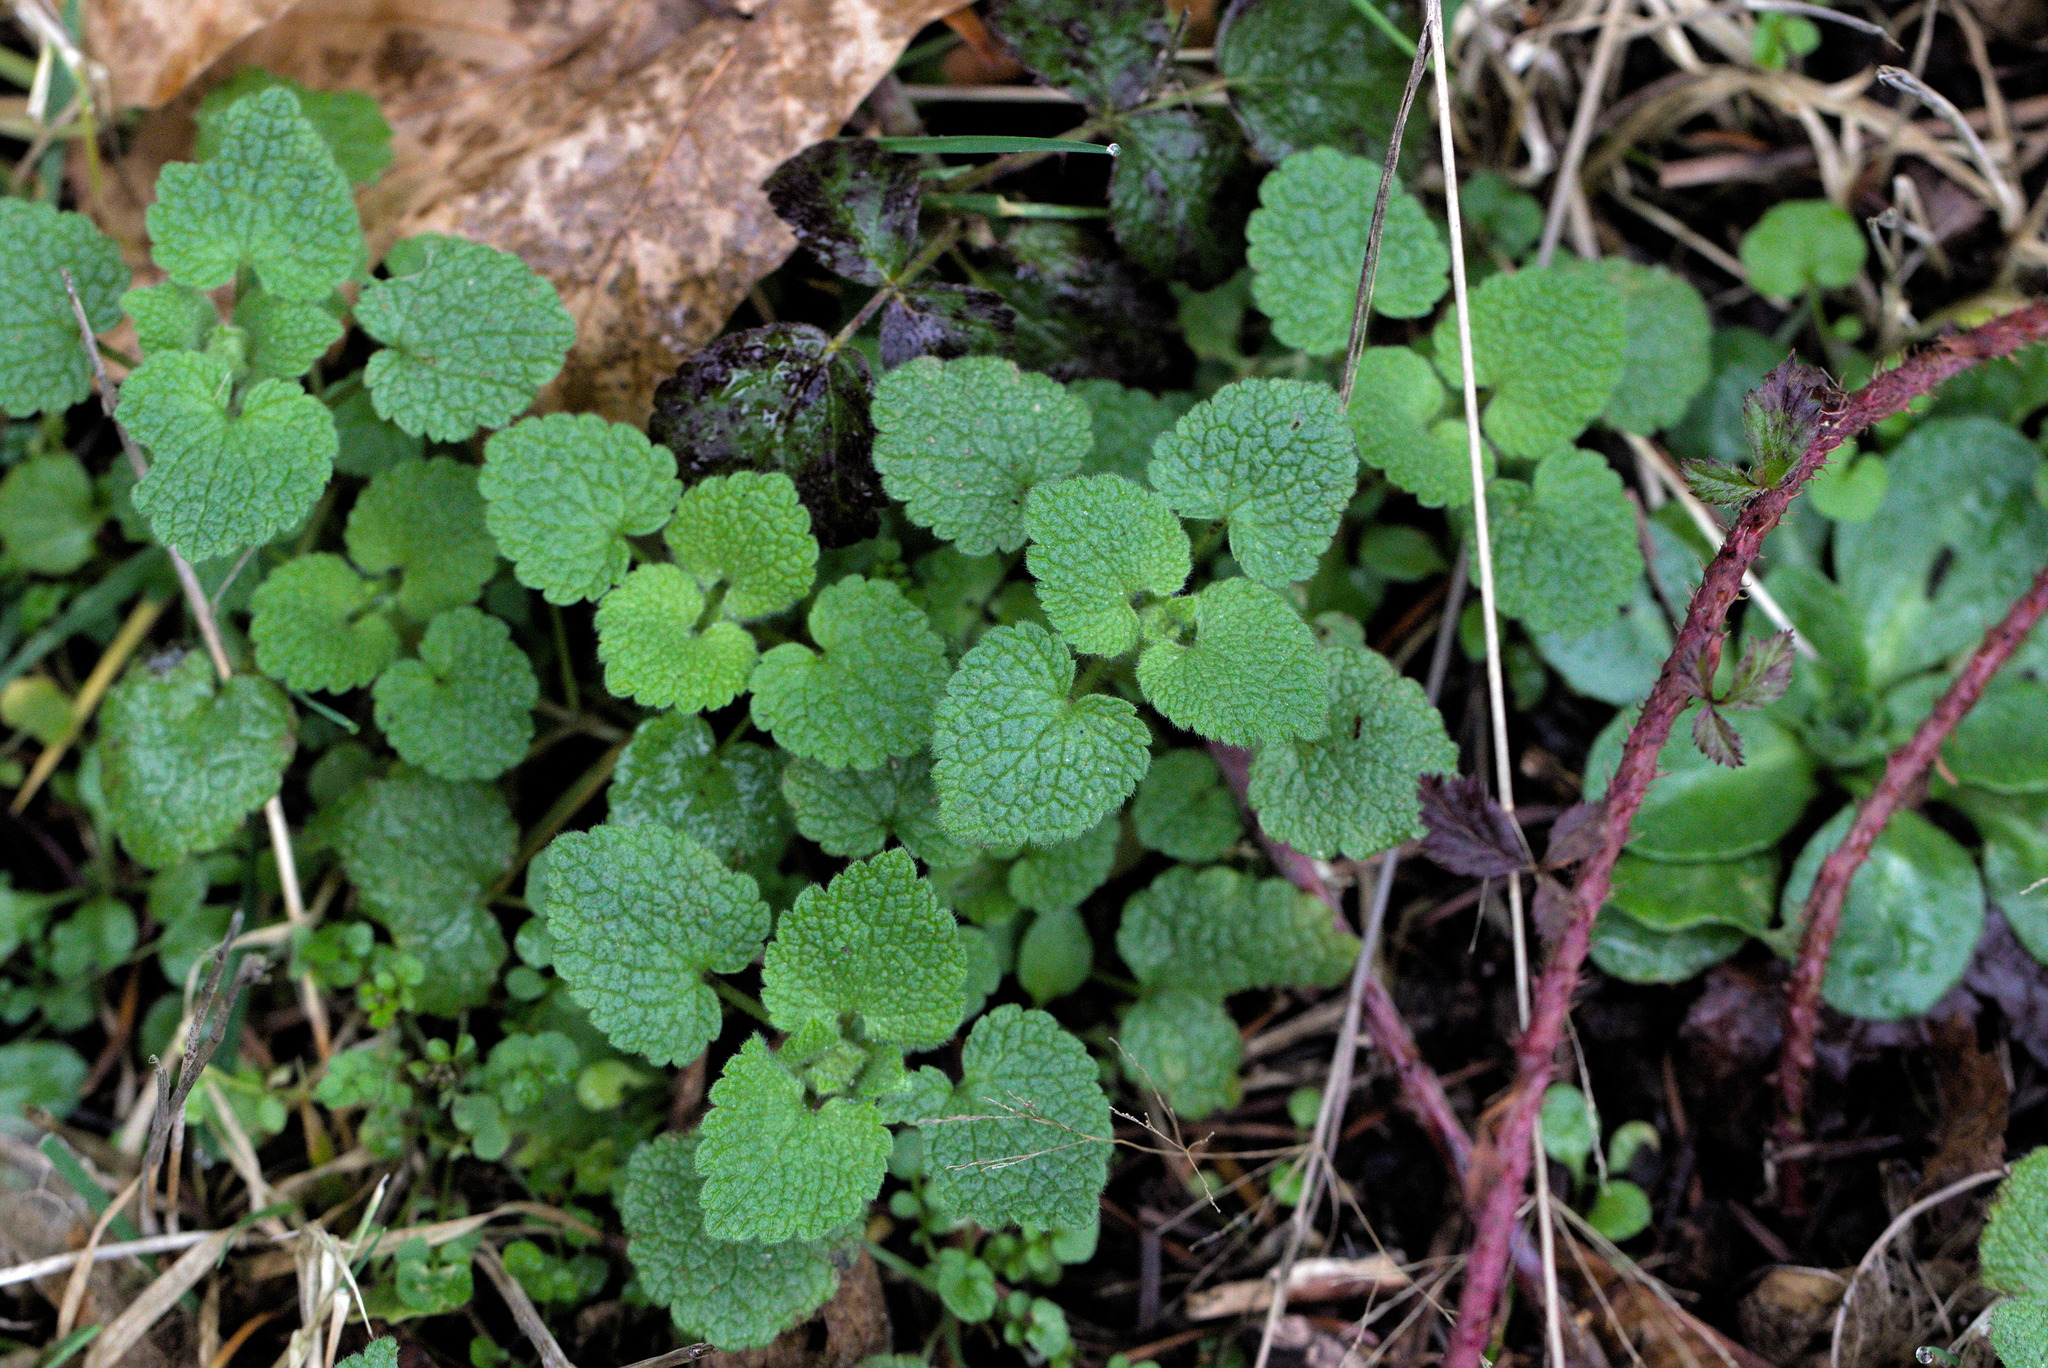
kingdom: Plantae
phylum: Tracheophyta
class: Magnoliopsida
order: Lamiales
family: Lamiaceae
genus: Lamium
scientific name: Lamium purpureum
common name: Red dead-nettle
